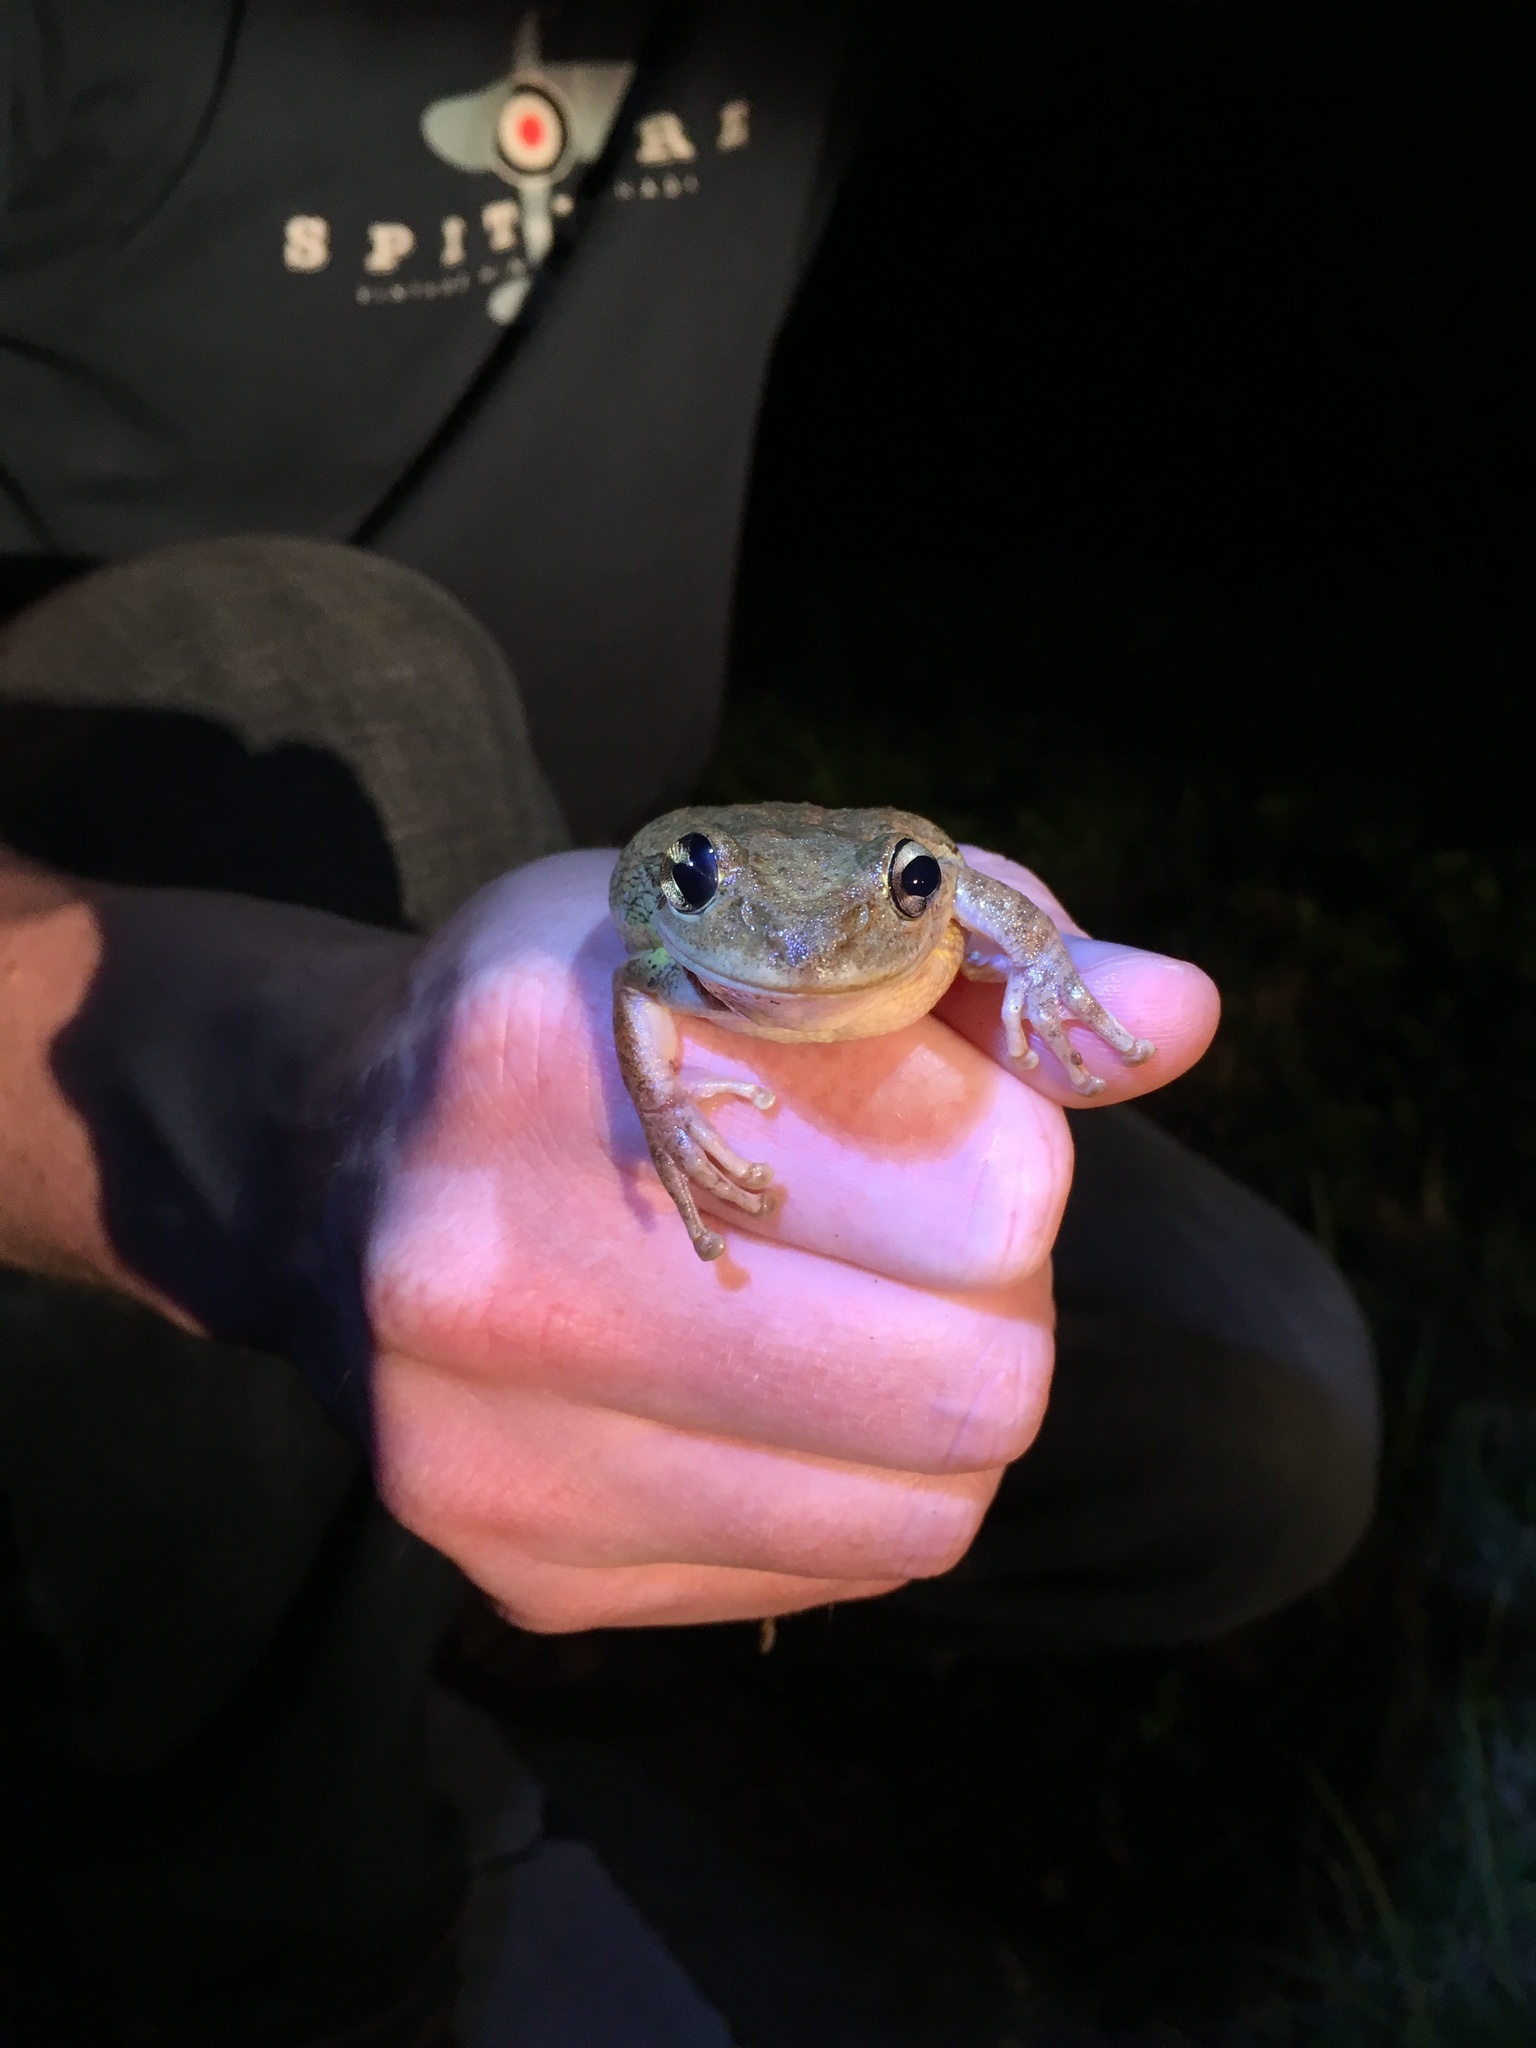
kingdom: Animalia
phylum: Chordata
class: Amphibia
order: Anura
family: Hylidae
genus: Osteopilus
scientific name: Osteopilus septentrionalis
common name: Cuban treefrog
